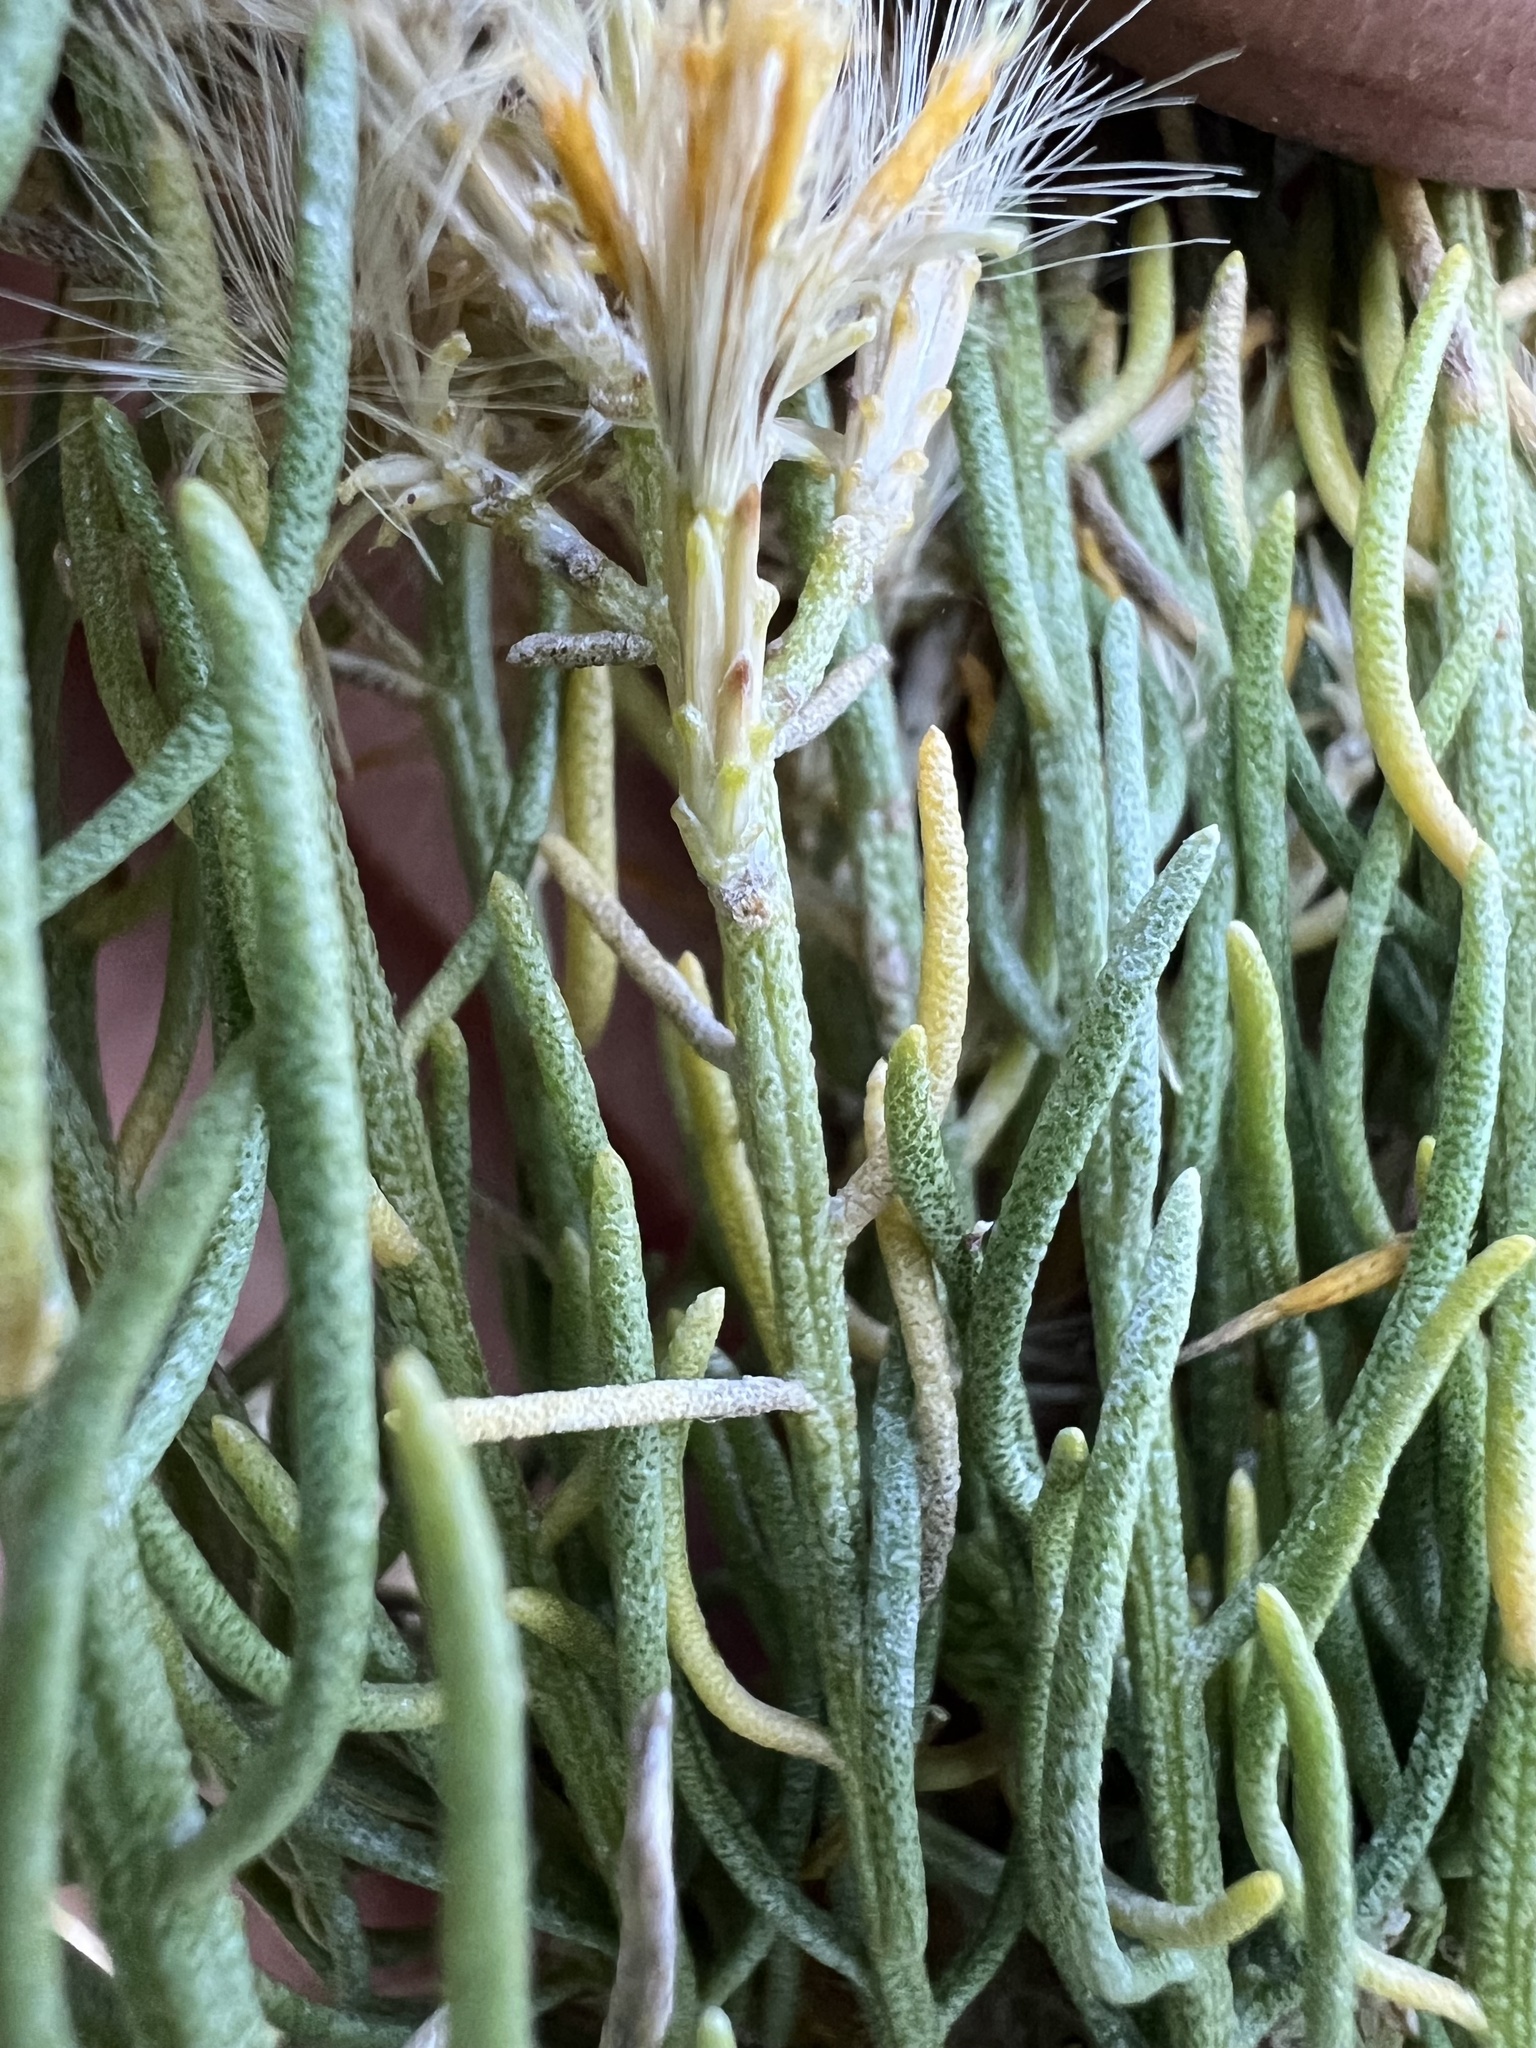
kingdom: Plantae
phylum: Tracheophyta
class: Magnoliopsida
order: Asterales
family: Asteraceae
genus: Ericameria
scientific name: Ericameria teretifolia
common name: Round-leaf rabbitbrush
